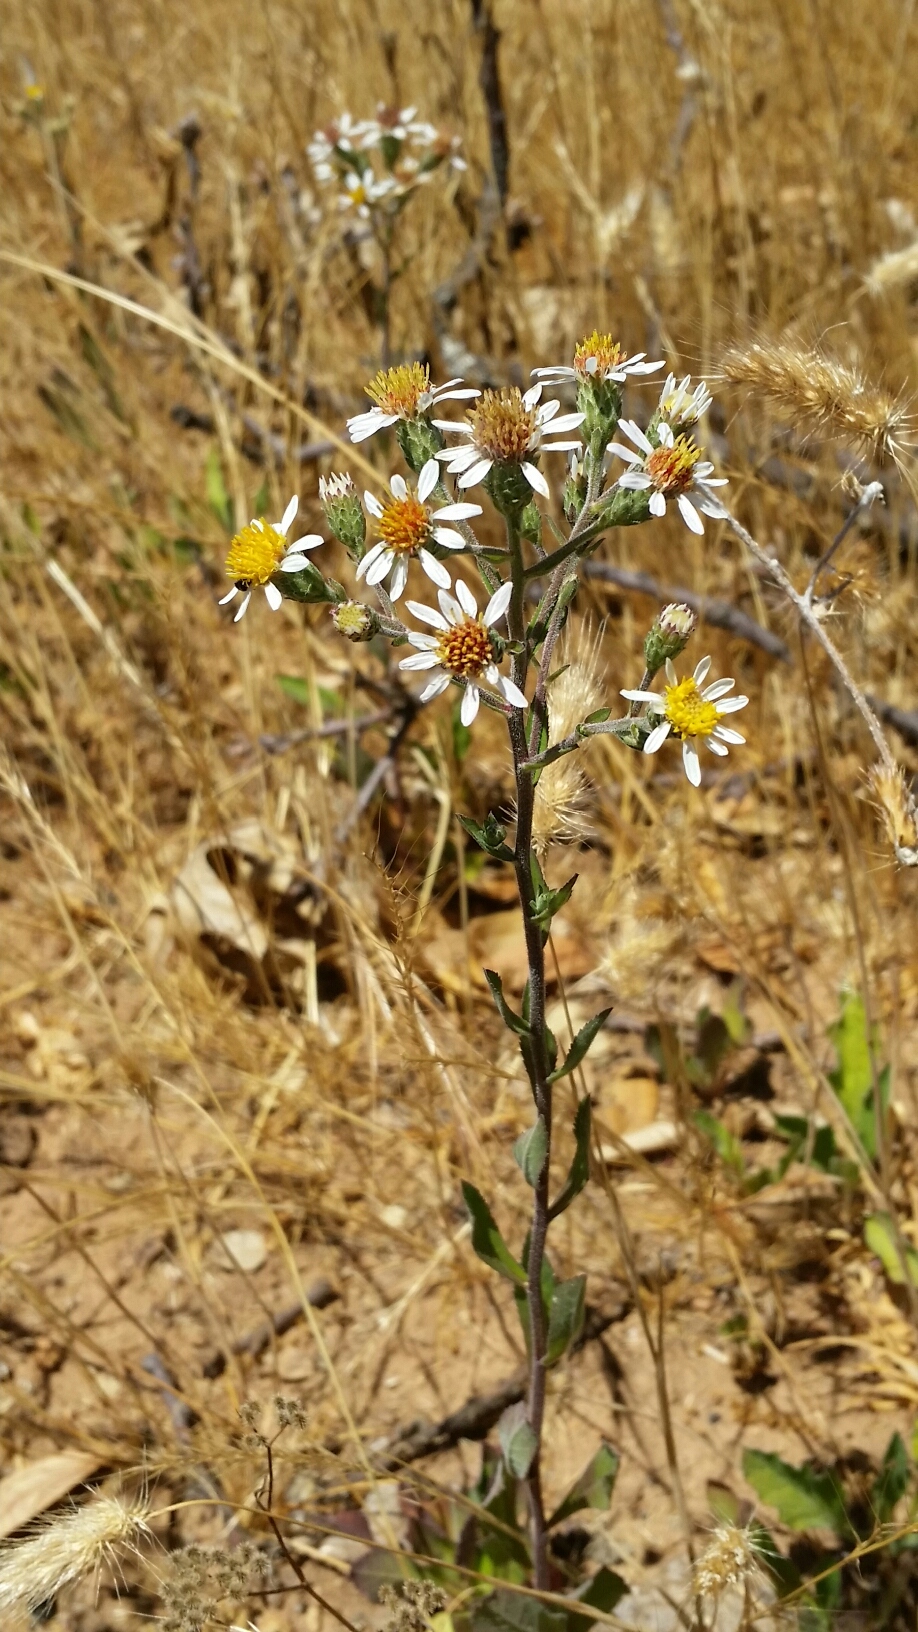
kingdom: Plantae
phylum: Tracheophyta
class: Magnoliopsida
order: Asterales
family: Asteraceae
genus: Eurybia
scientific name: Eurybia radulina
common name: Rough-leaved aster
